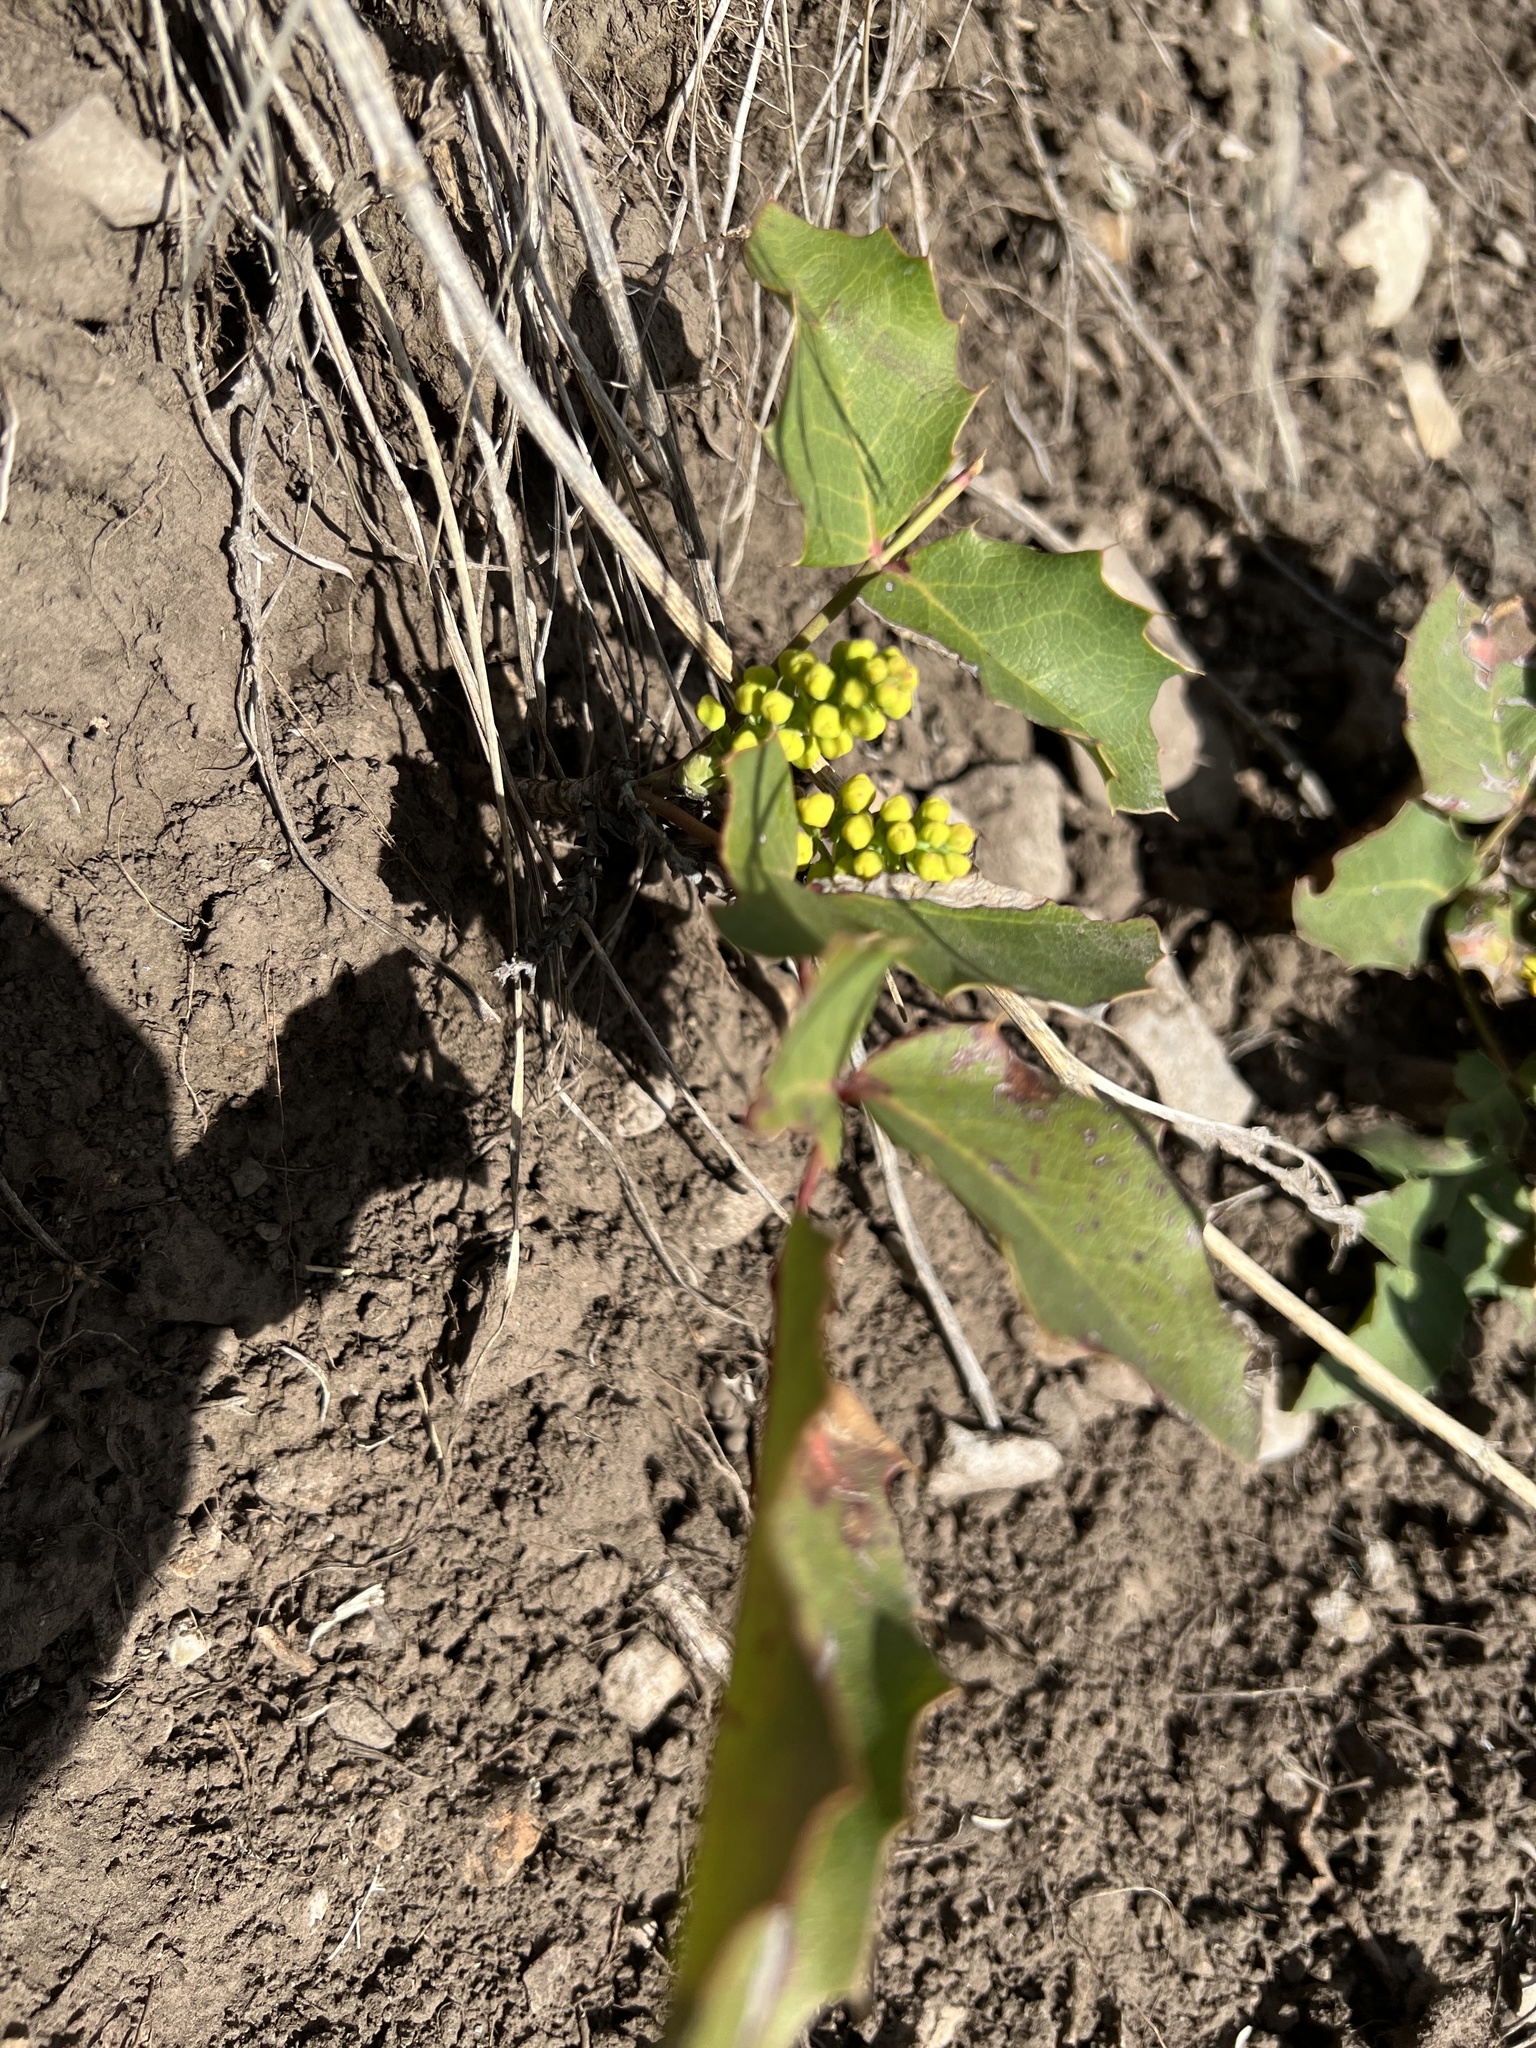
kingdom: Plantae
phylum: Tracheophyta
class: Magnoliopsida
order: Ranunculales
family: Berberidaceae
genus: Mahonia
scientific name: Mahonia repens
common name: Creeping oregon-grape
